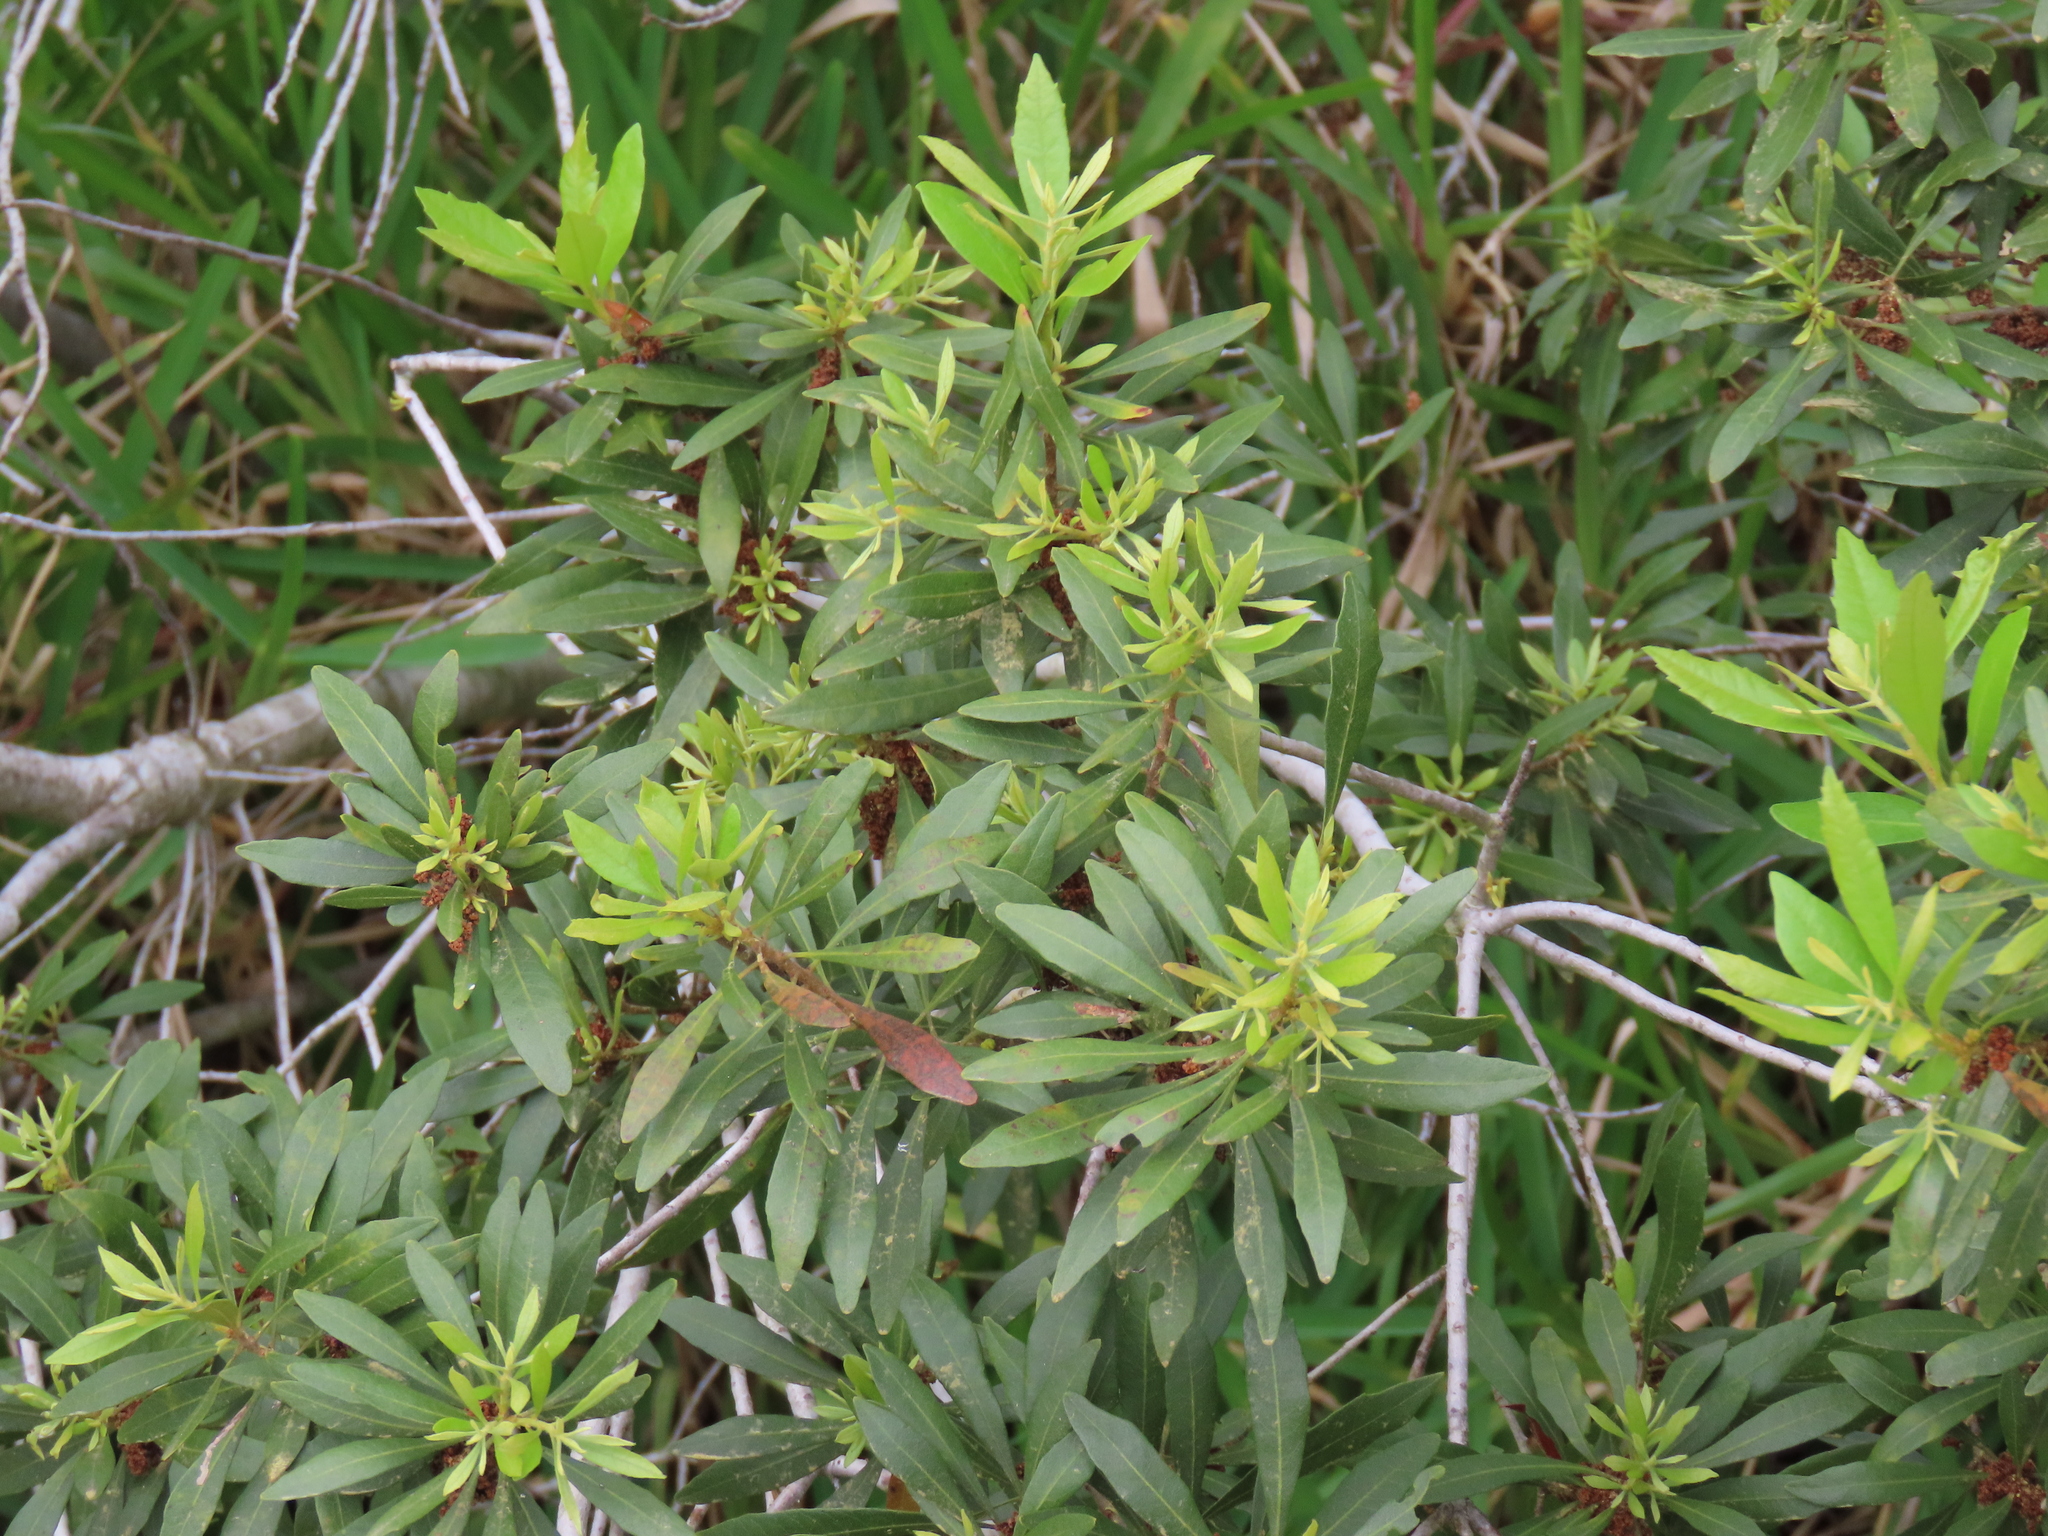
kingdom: Plantae
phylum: Tracheophyta
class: Magnoliopsida
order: Fagales
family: Myricaceae
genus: Morella
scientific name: Morella cerifera
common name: Wax myrtle
